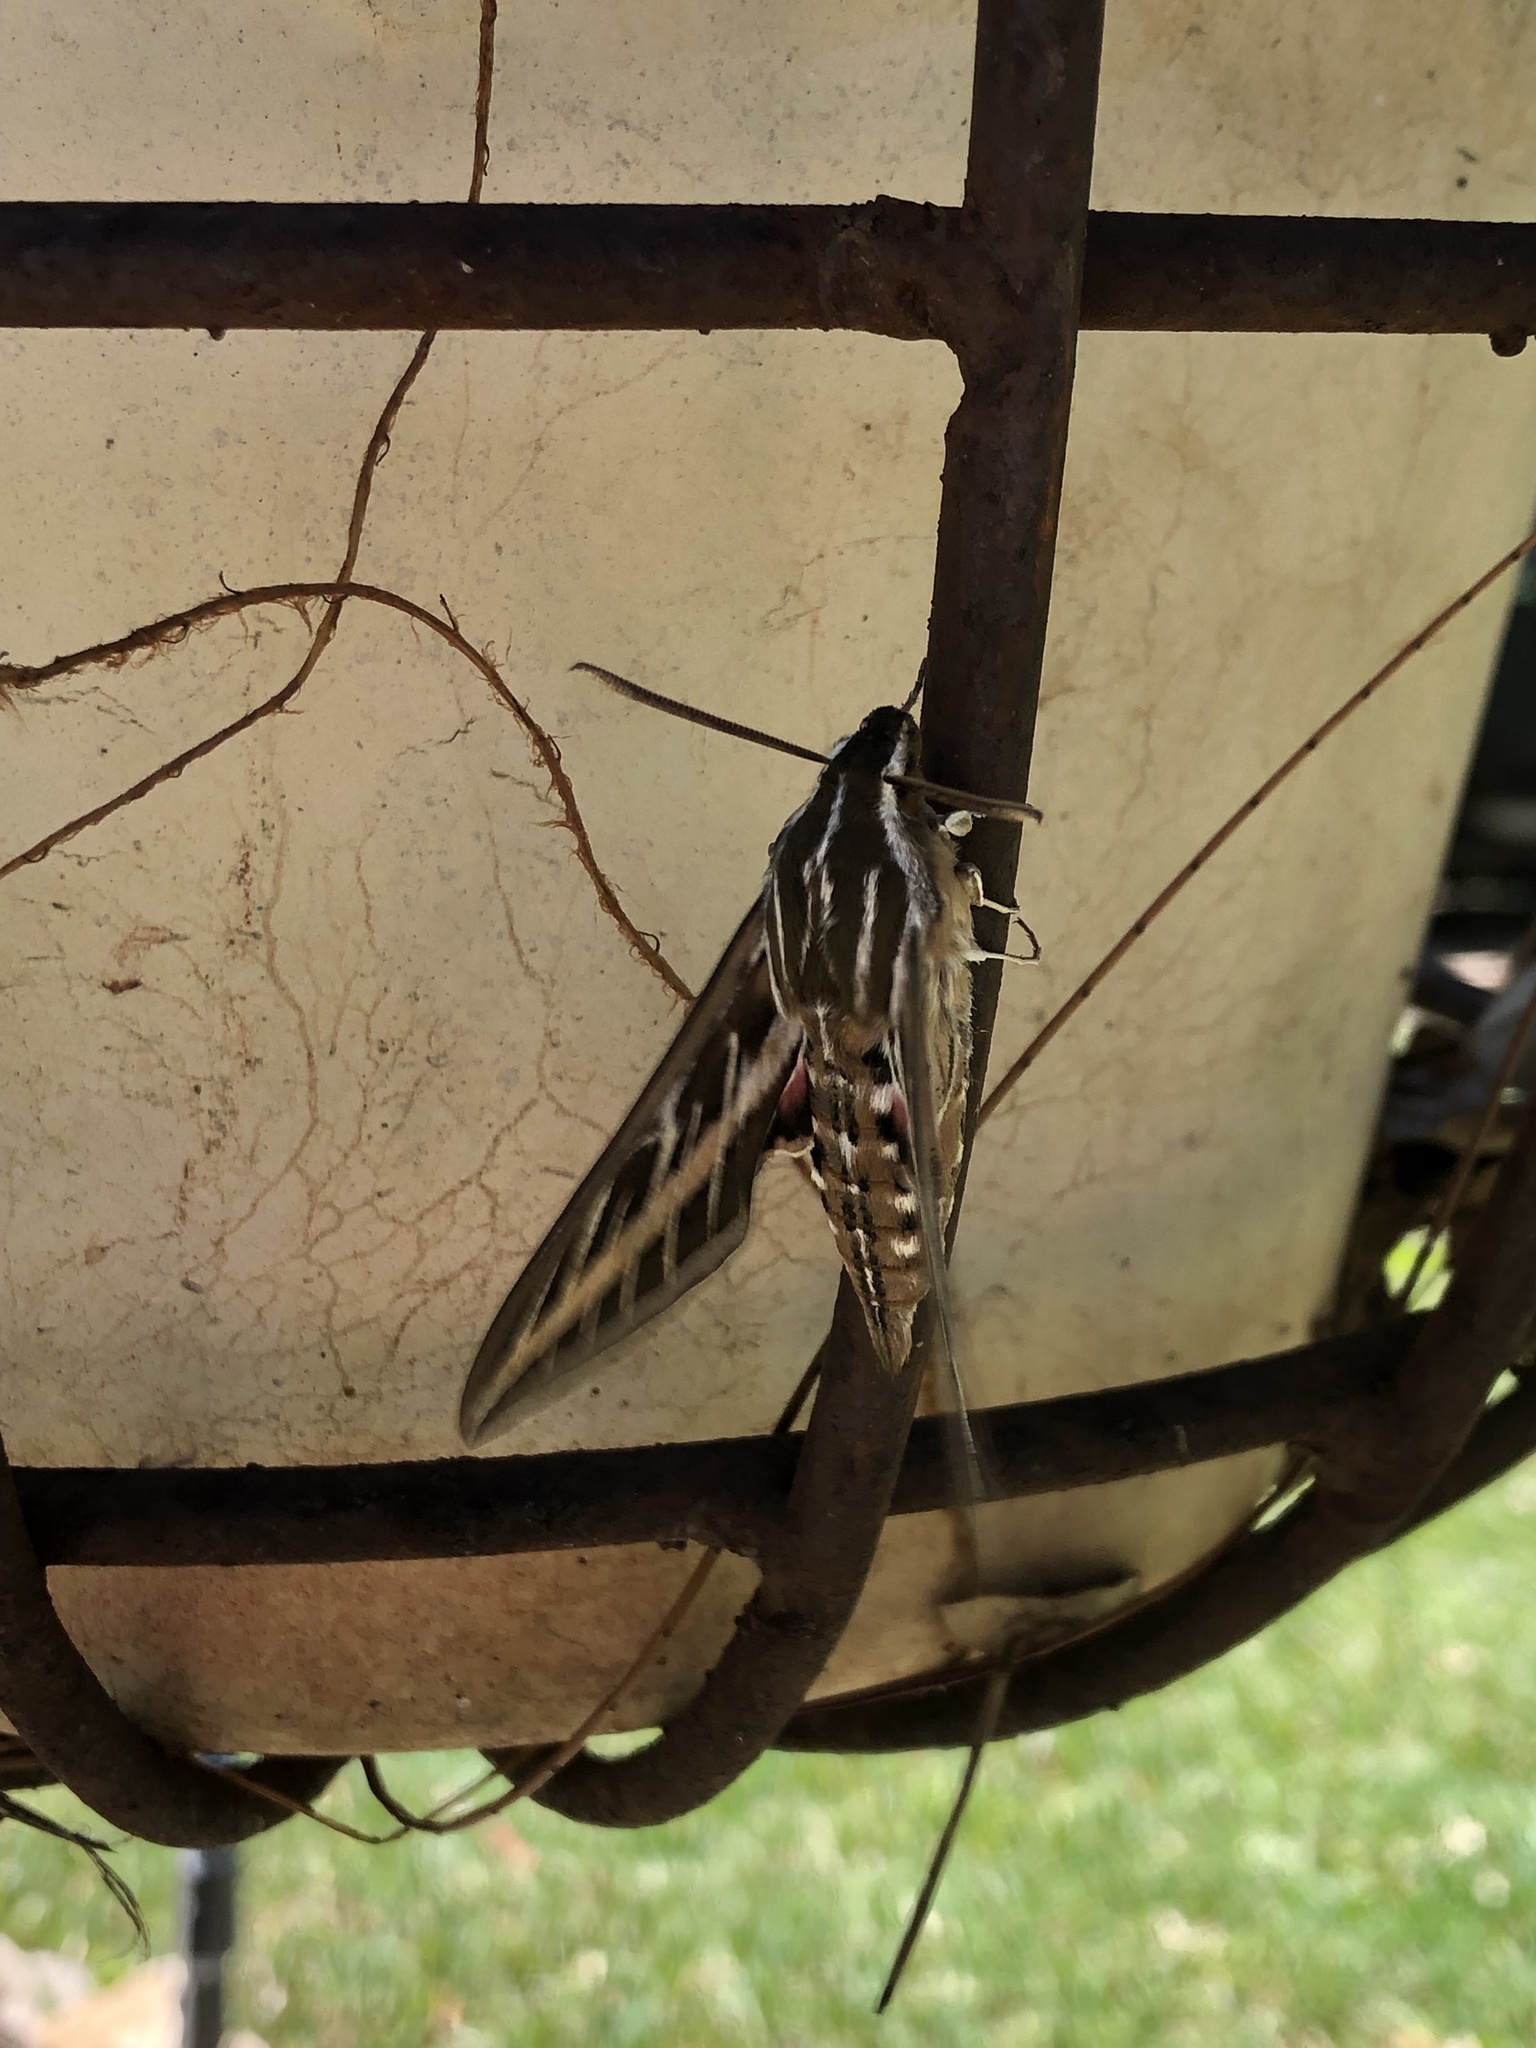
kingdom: Animalia
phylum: Arthropoda
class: Insecta
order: Lepidoptera
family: Sphingidae
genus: Hyles
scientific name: Hyles lineata
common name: White-lined sphinx
